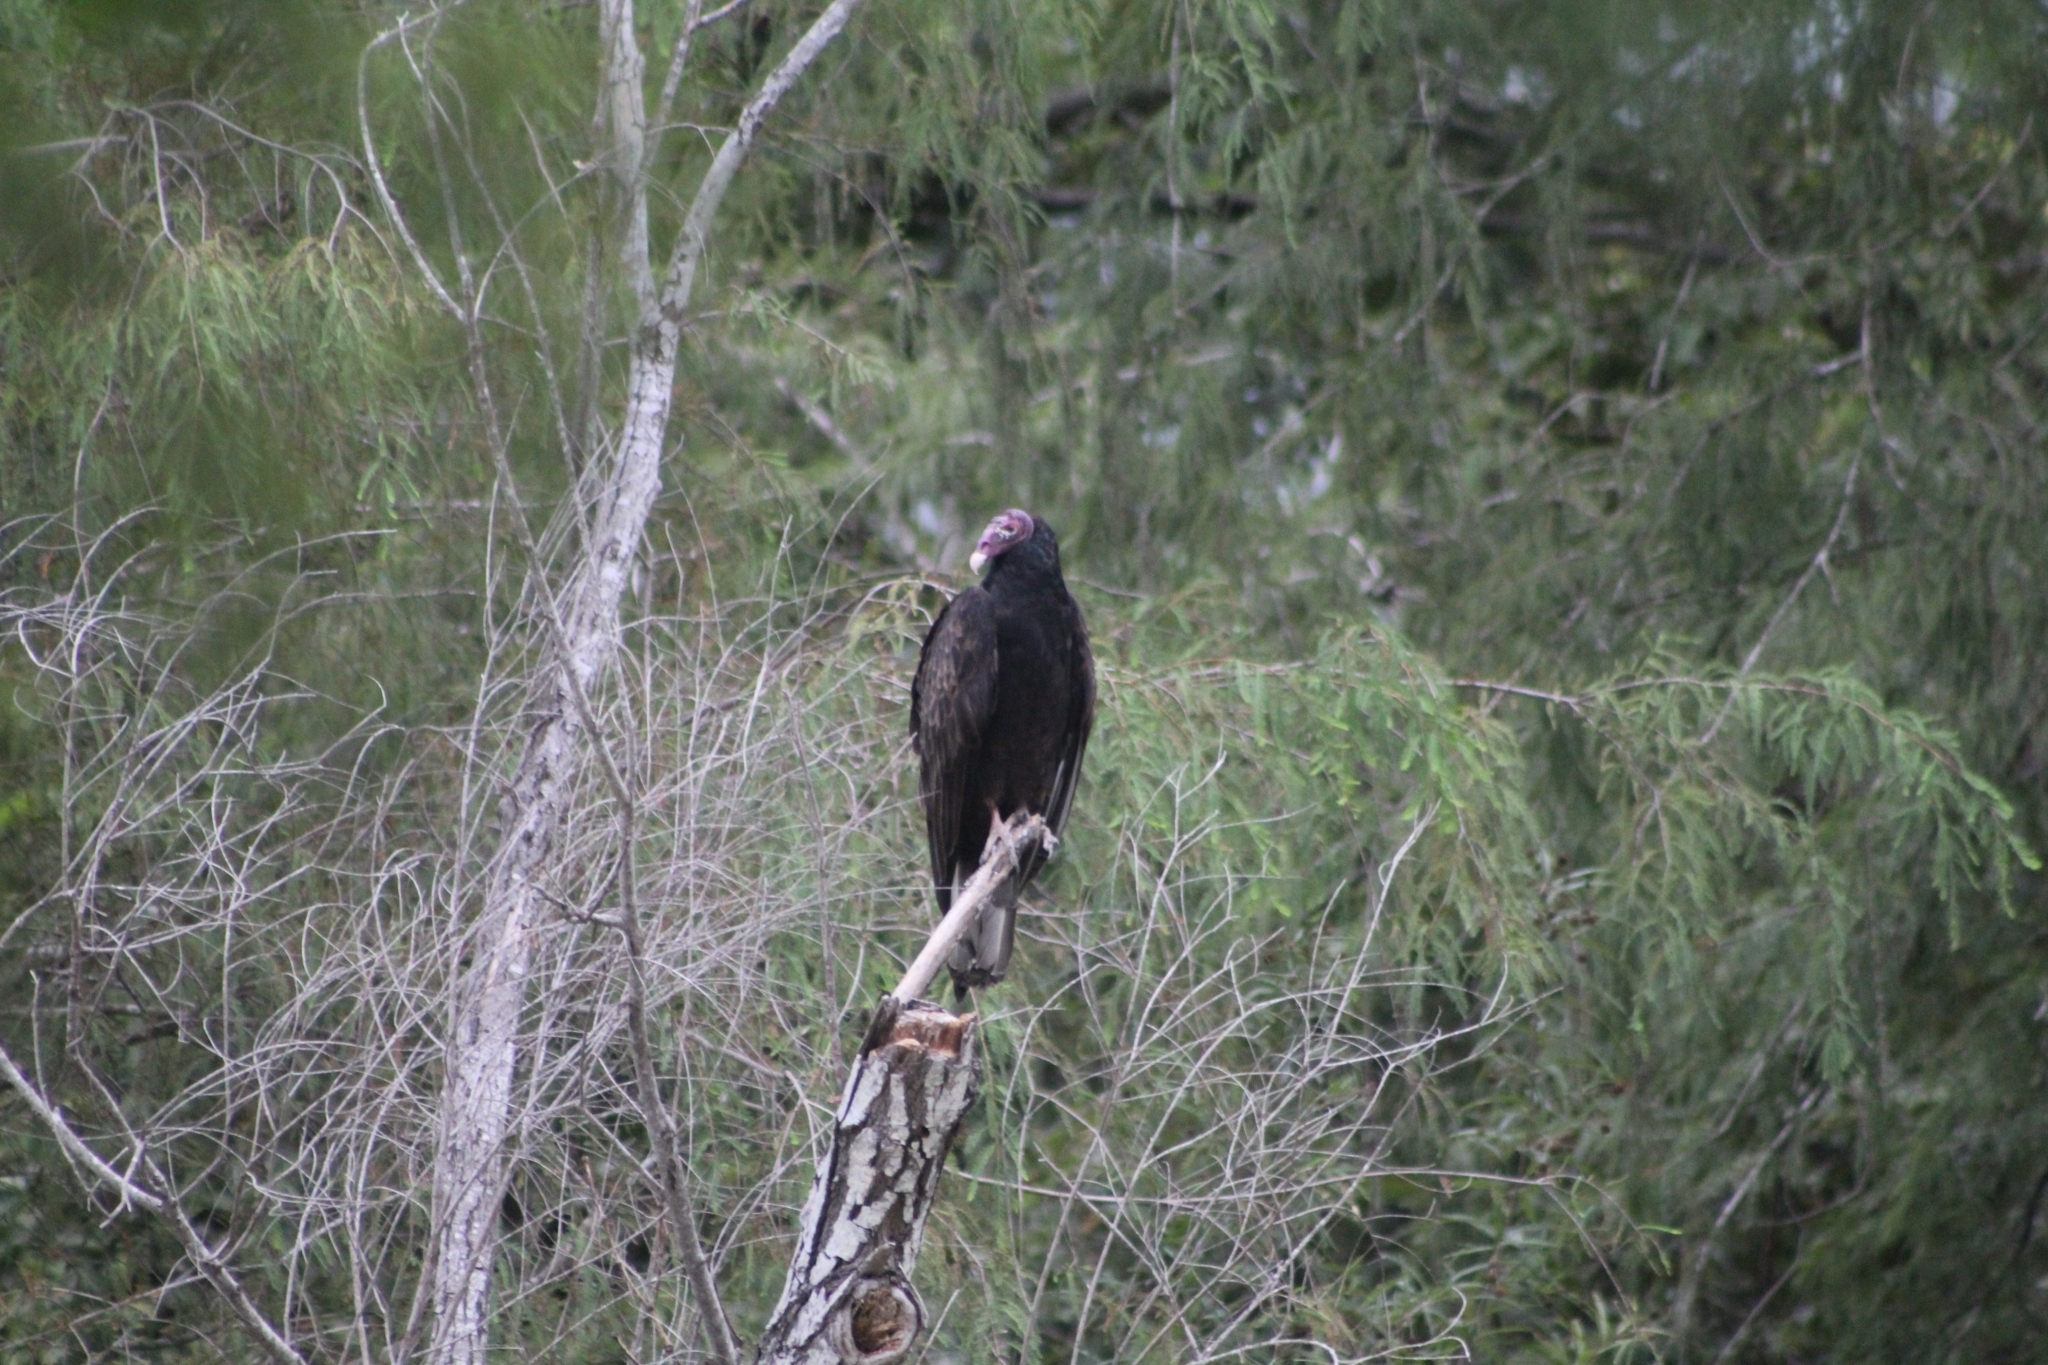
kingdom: Animalia
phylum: Chordata
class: Aves
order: Accipitriformes
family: Cathartidae
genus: Cathartes
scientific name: Cathartes aura
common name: Turkey vulture
